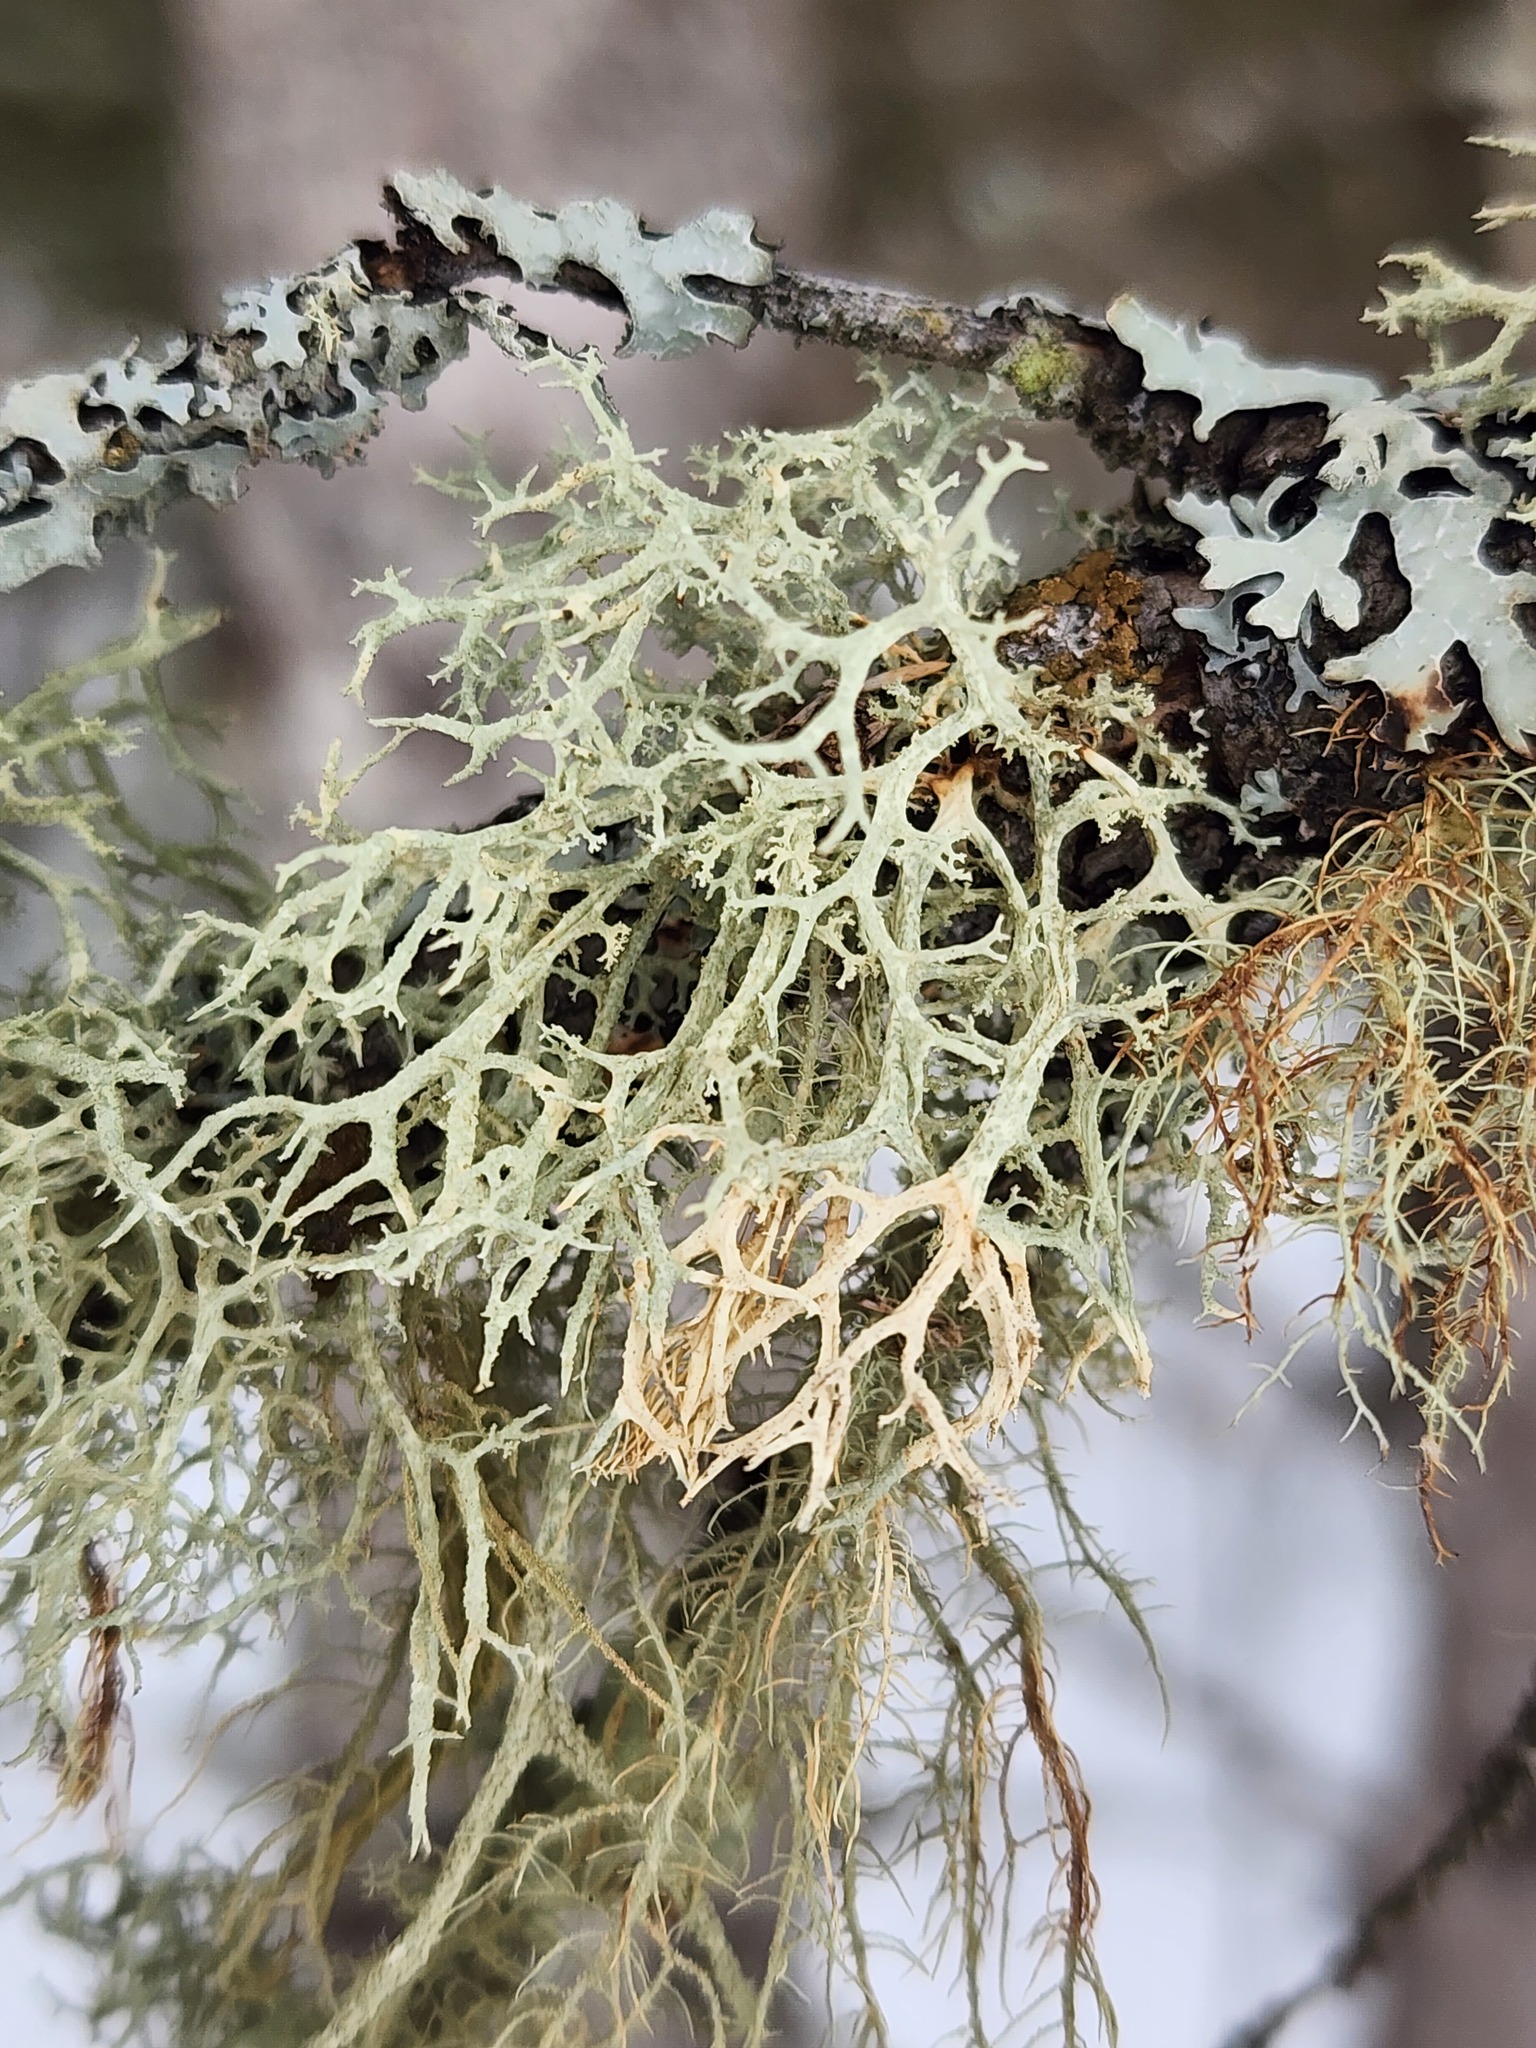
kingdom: Fungi
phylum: Ascomycota
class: Lecanoromycetes
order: Lecanorales
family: Parmeliaceae
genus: Evernia
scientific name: Evernia mesomorpha
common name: Boreal oak moss lichen
